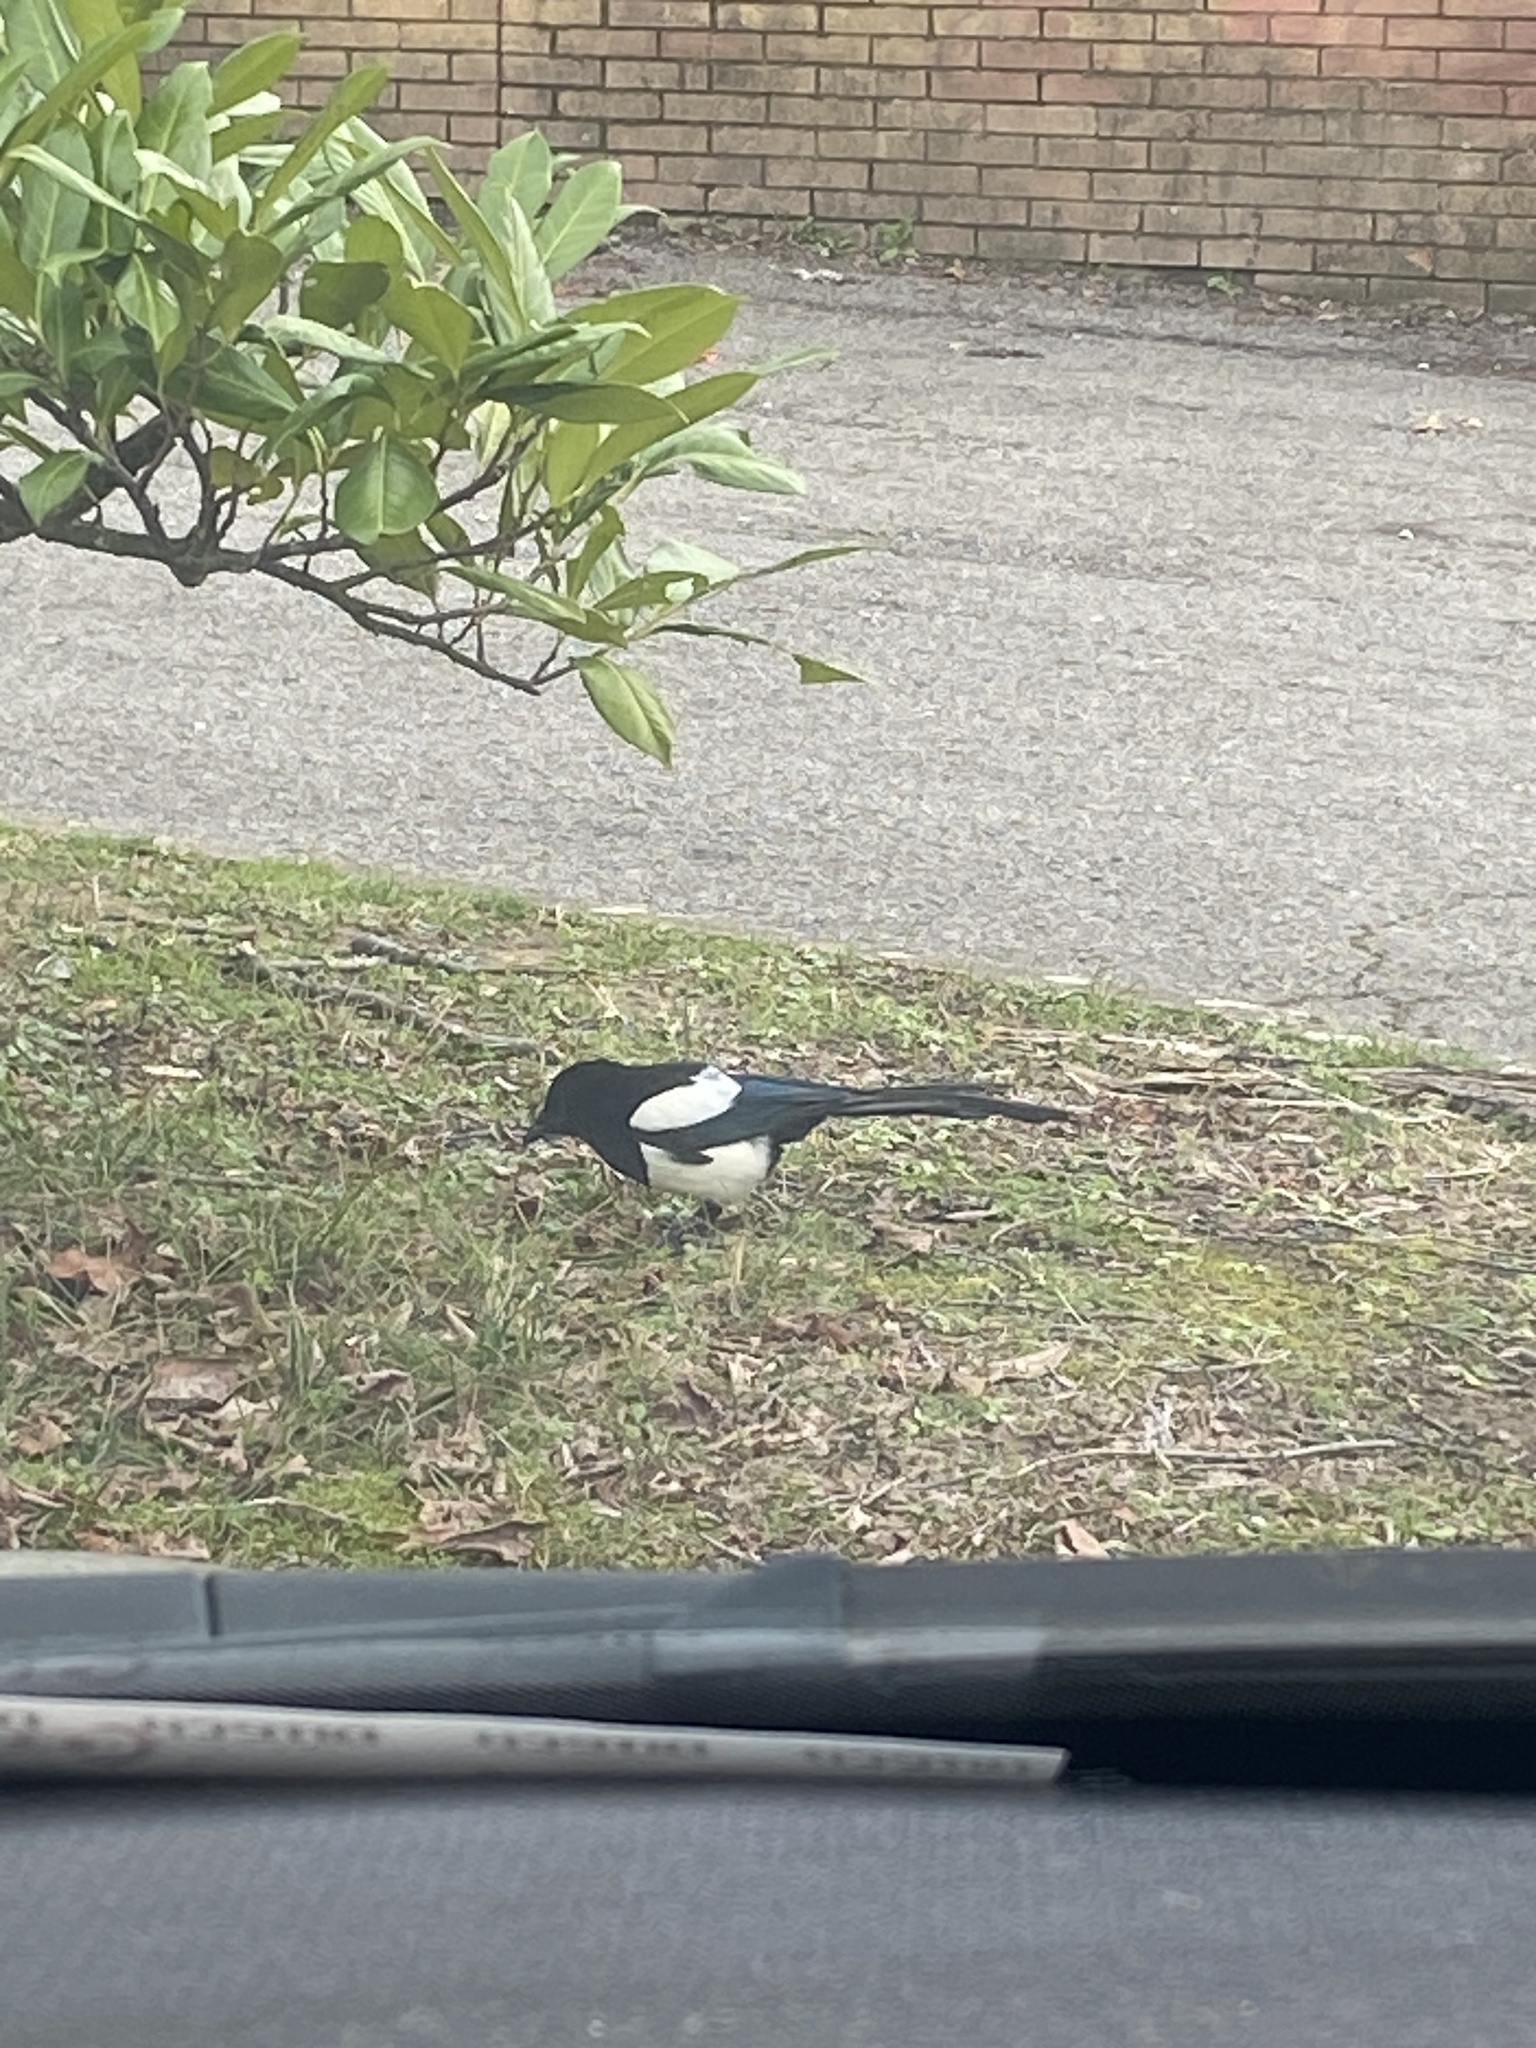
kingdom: Animalia
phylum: Chordata
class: Aves
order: Passeriformes
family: Corvidae
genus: Pica
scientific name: Pica pica
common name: Eurasian magpie
